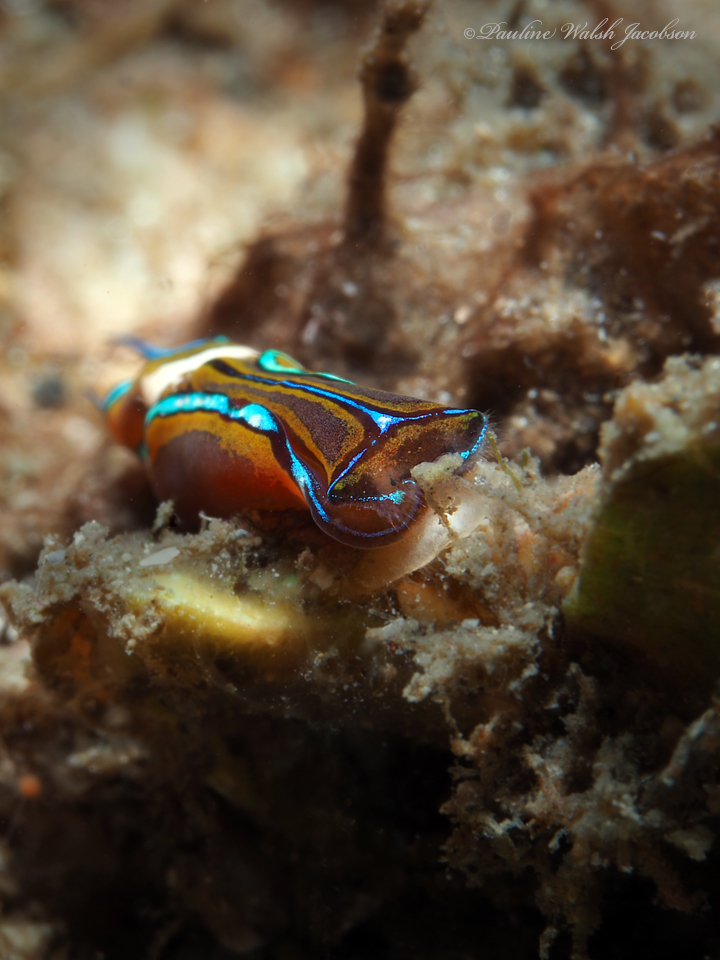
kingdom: Animalia
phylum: Mollusca
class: Gastropoda
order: Cephalaspidea
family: Aglajidae
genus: Chelidonura
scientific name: Chelidonura hirundinina
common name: Leech headshield slug
